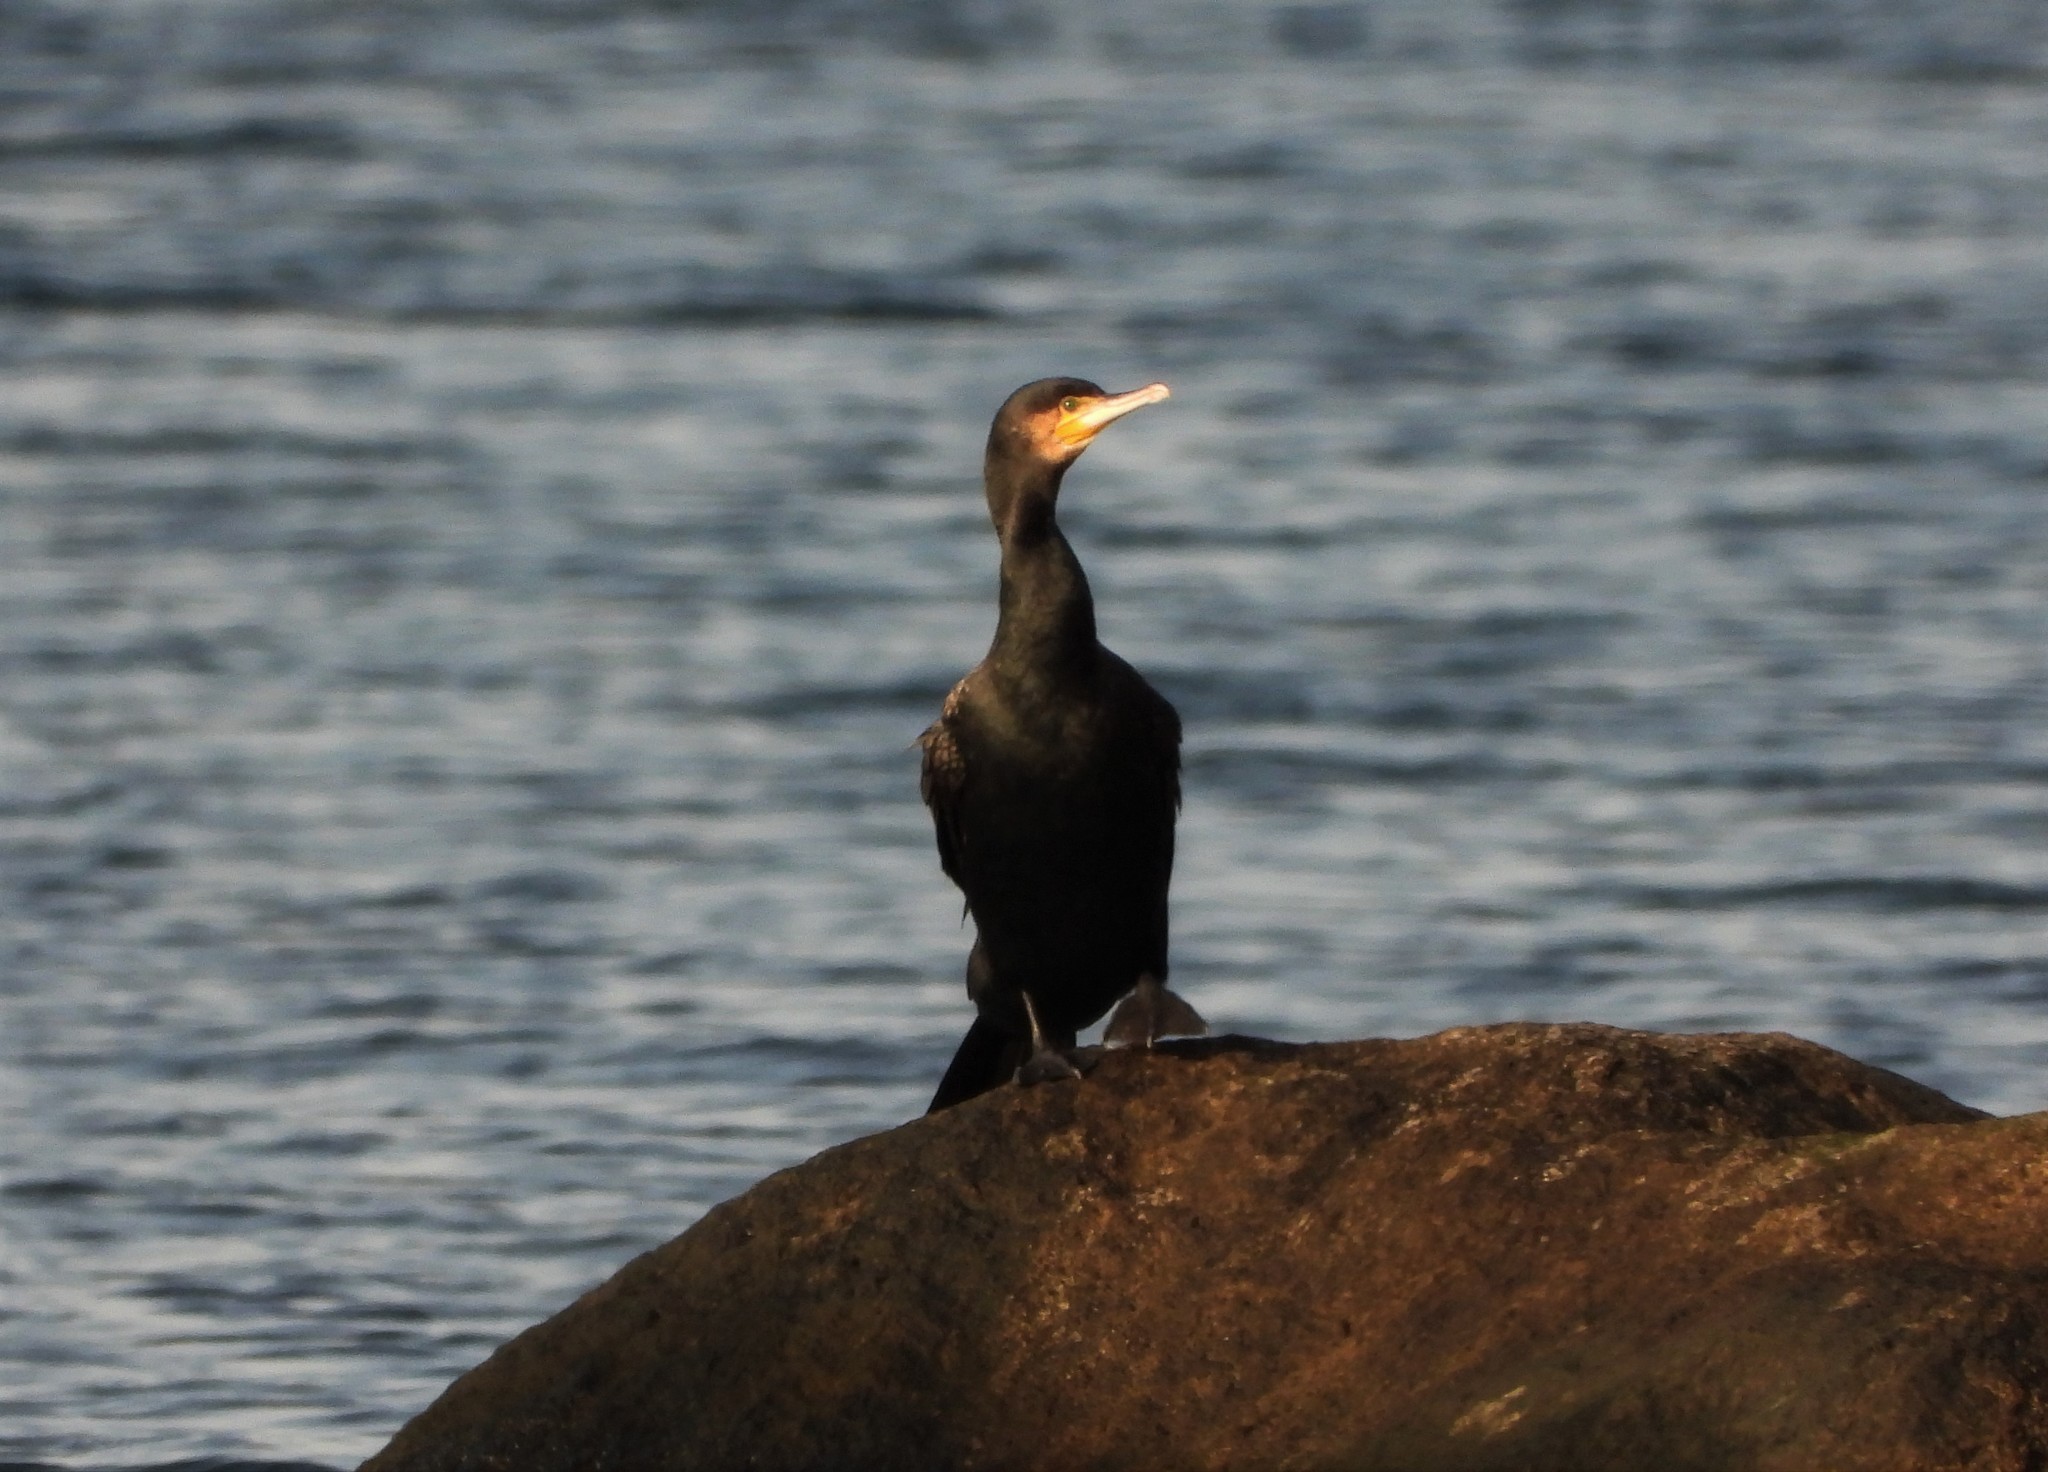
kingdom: Animalia
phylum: Chordata
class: Aves
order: Suliformes
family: Phalacrocoracidae
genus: Phalacrocorax
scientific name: Phalacrocorax carbo
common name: Great cormorant
